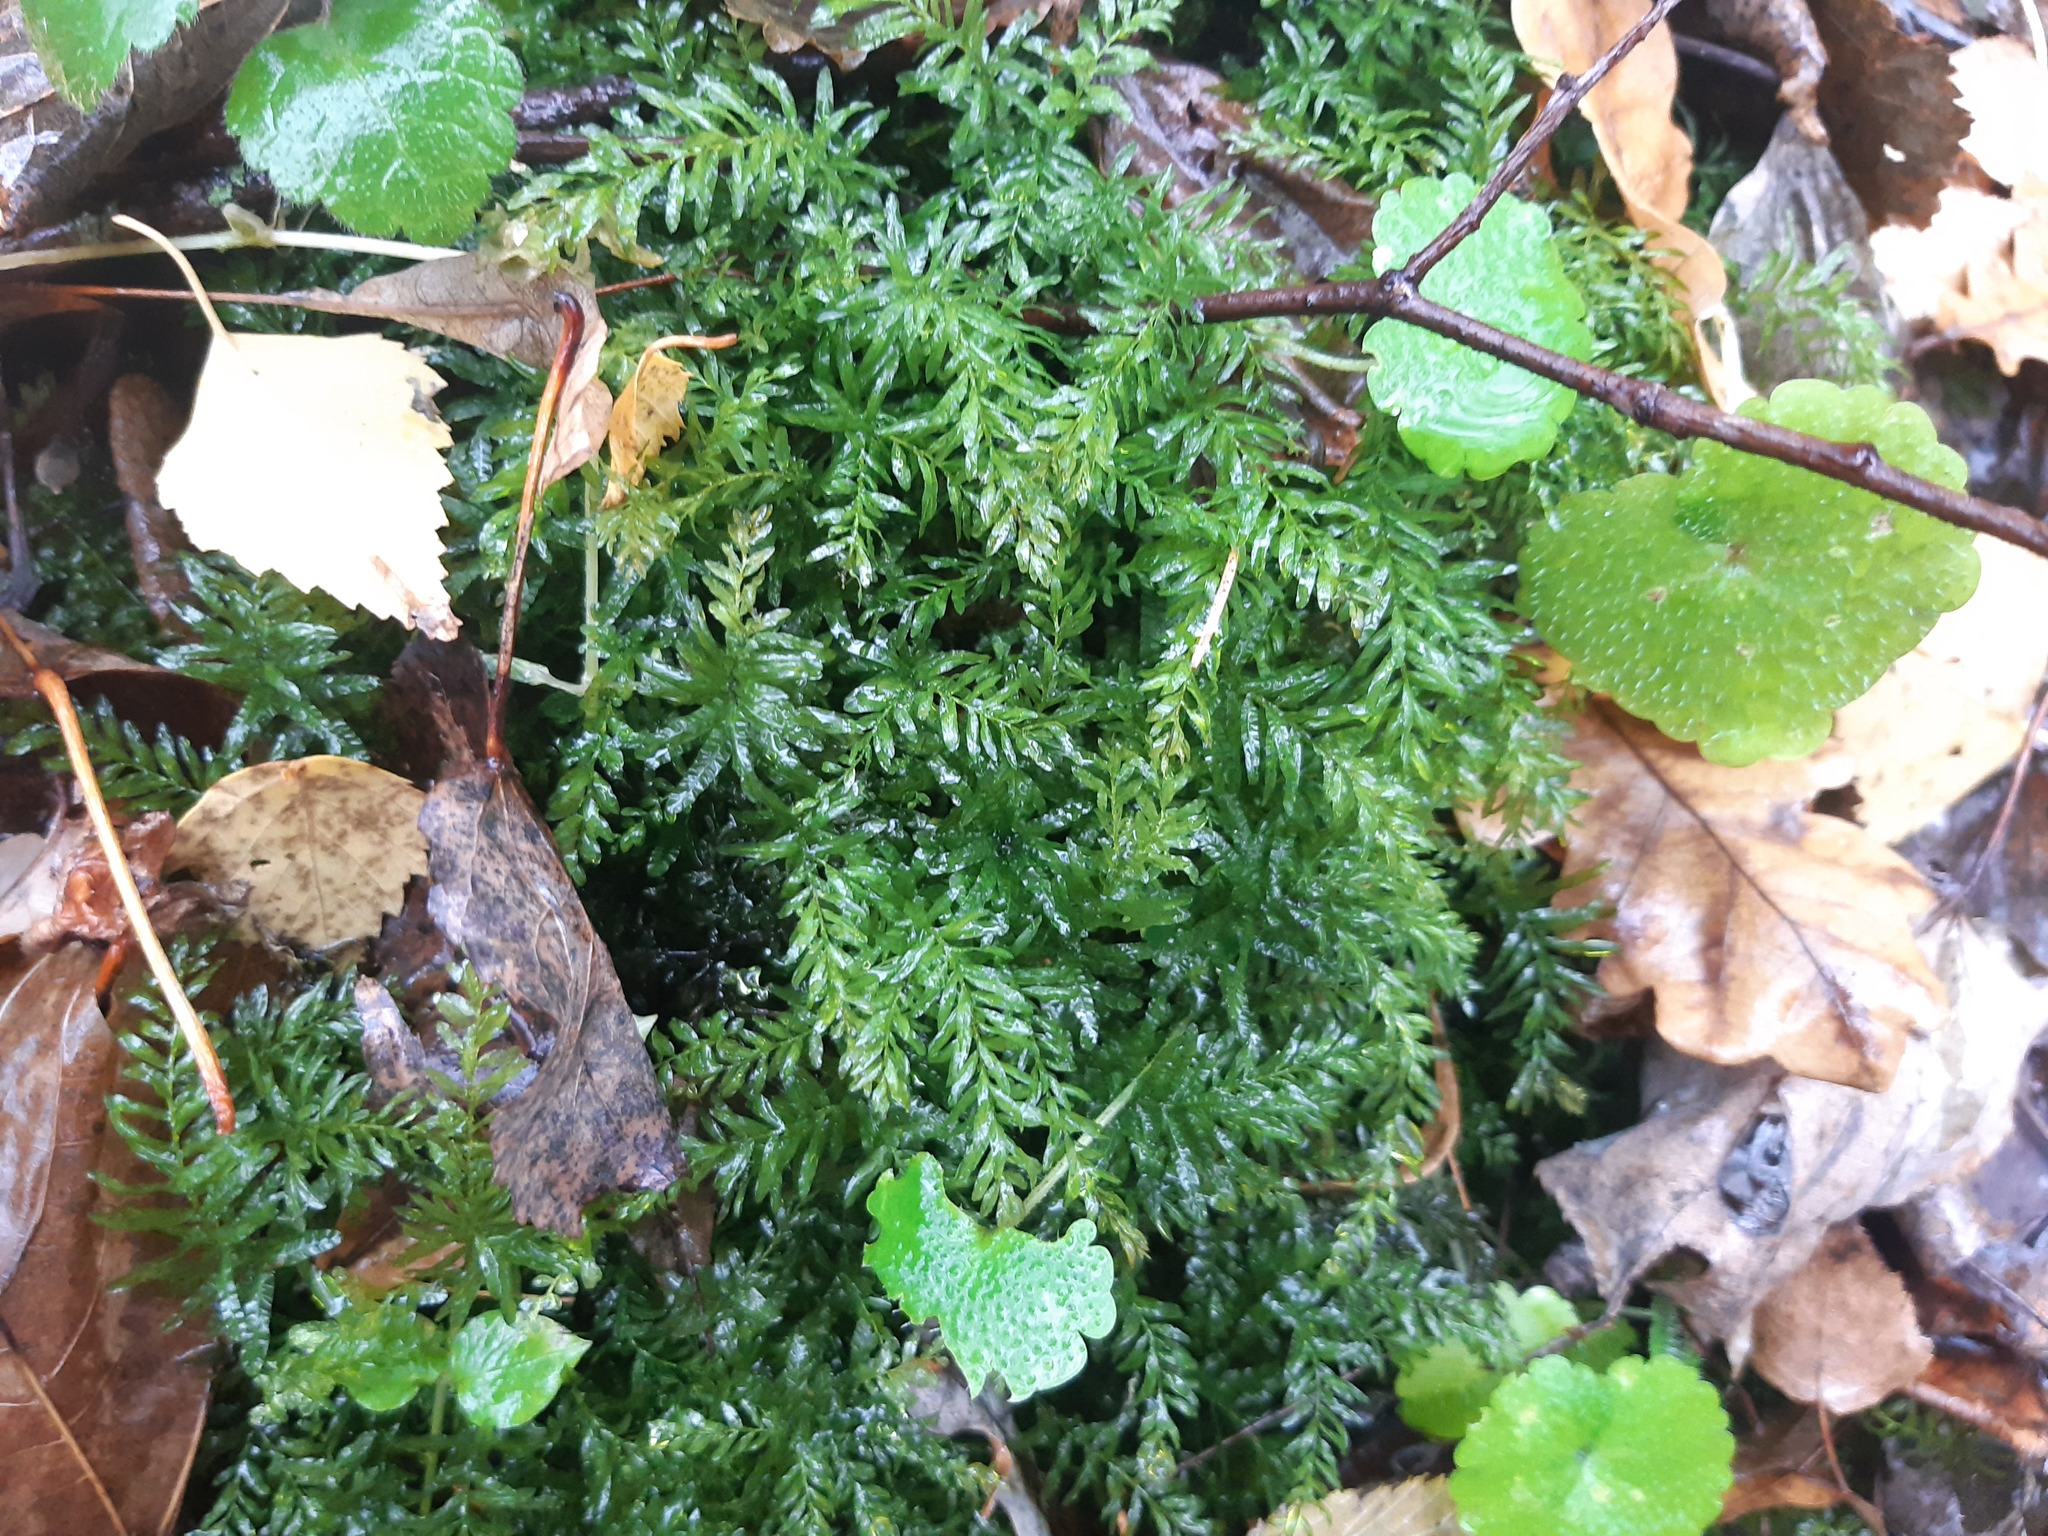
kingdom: Plantae
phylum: Bryophyta
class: Bryopsida
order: Bryales
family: Mniaceae
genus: Plagiomnium
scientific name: Plagiomnium undulatum
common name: Hart's-tongue thyme-moss
